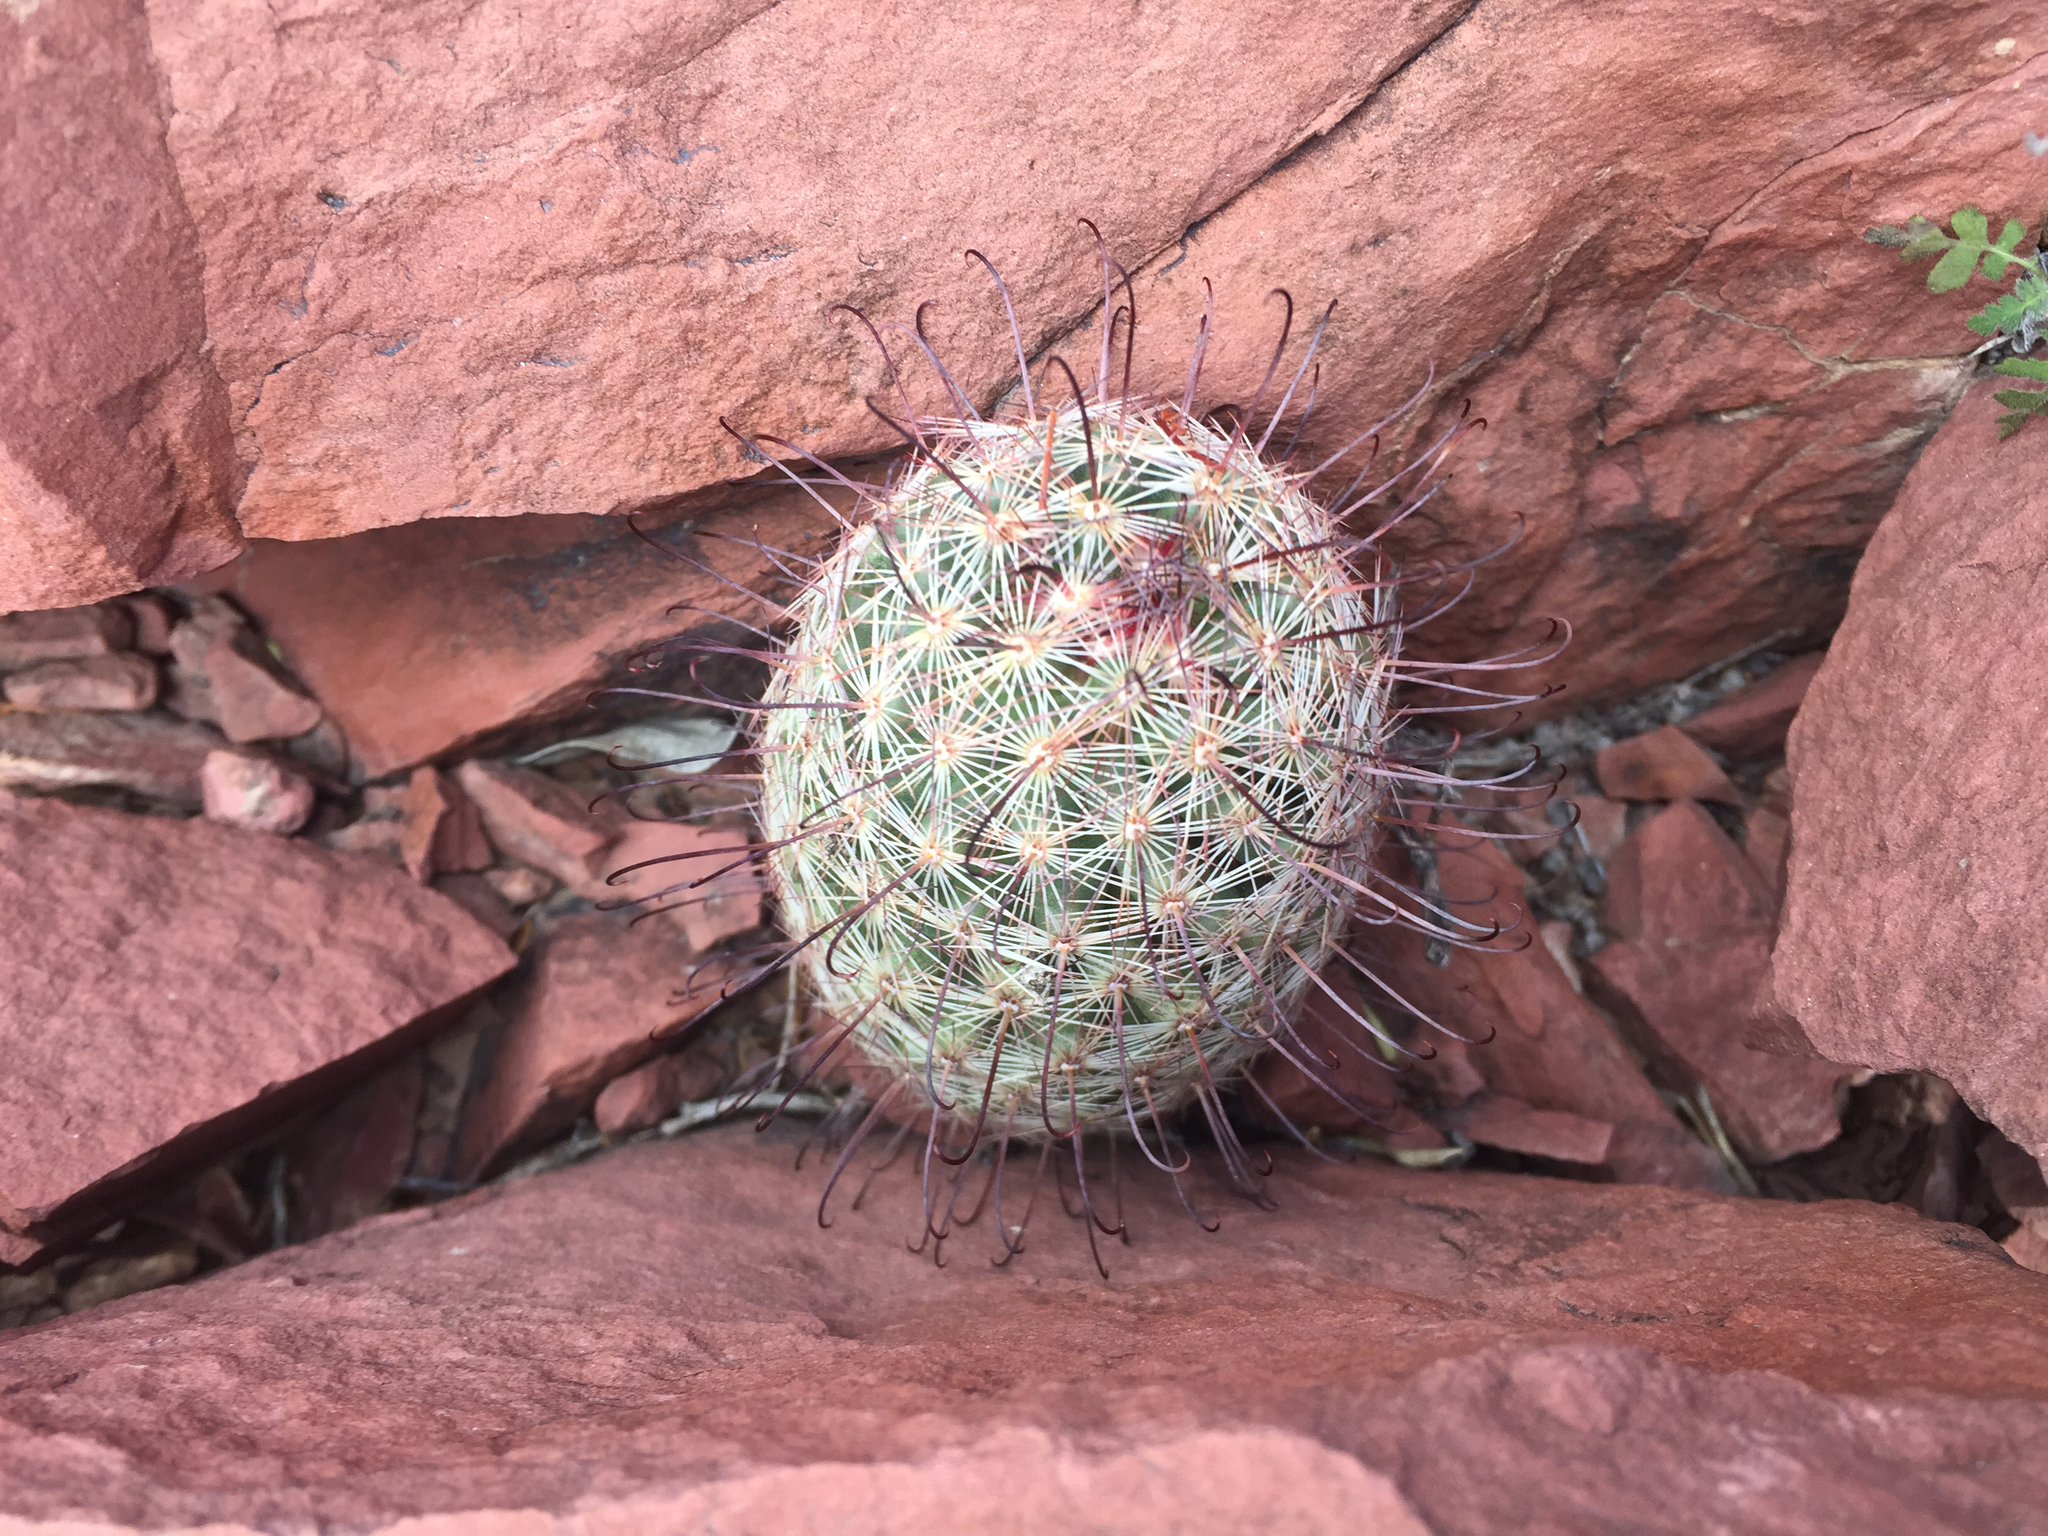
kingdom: Plantae
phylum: Tracheophyta
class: Magnoliopsida
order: Caryophyllales
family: Cactaceae
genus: Cochemiea
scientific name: Cochemiea grahamii
